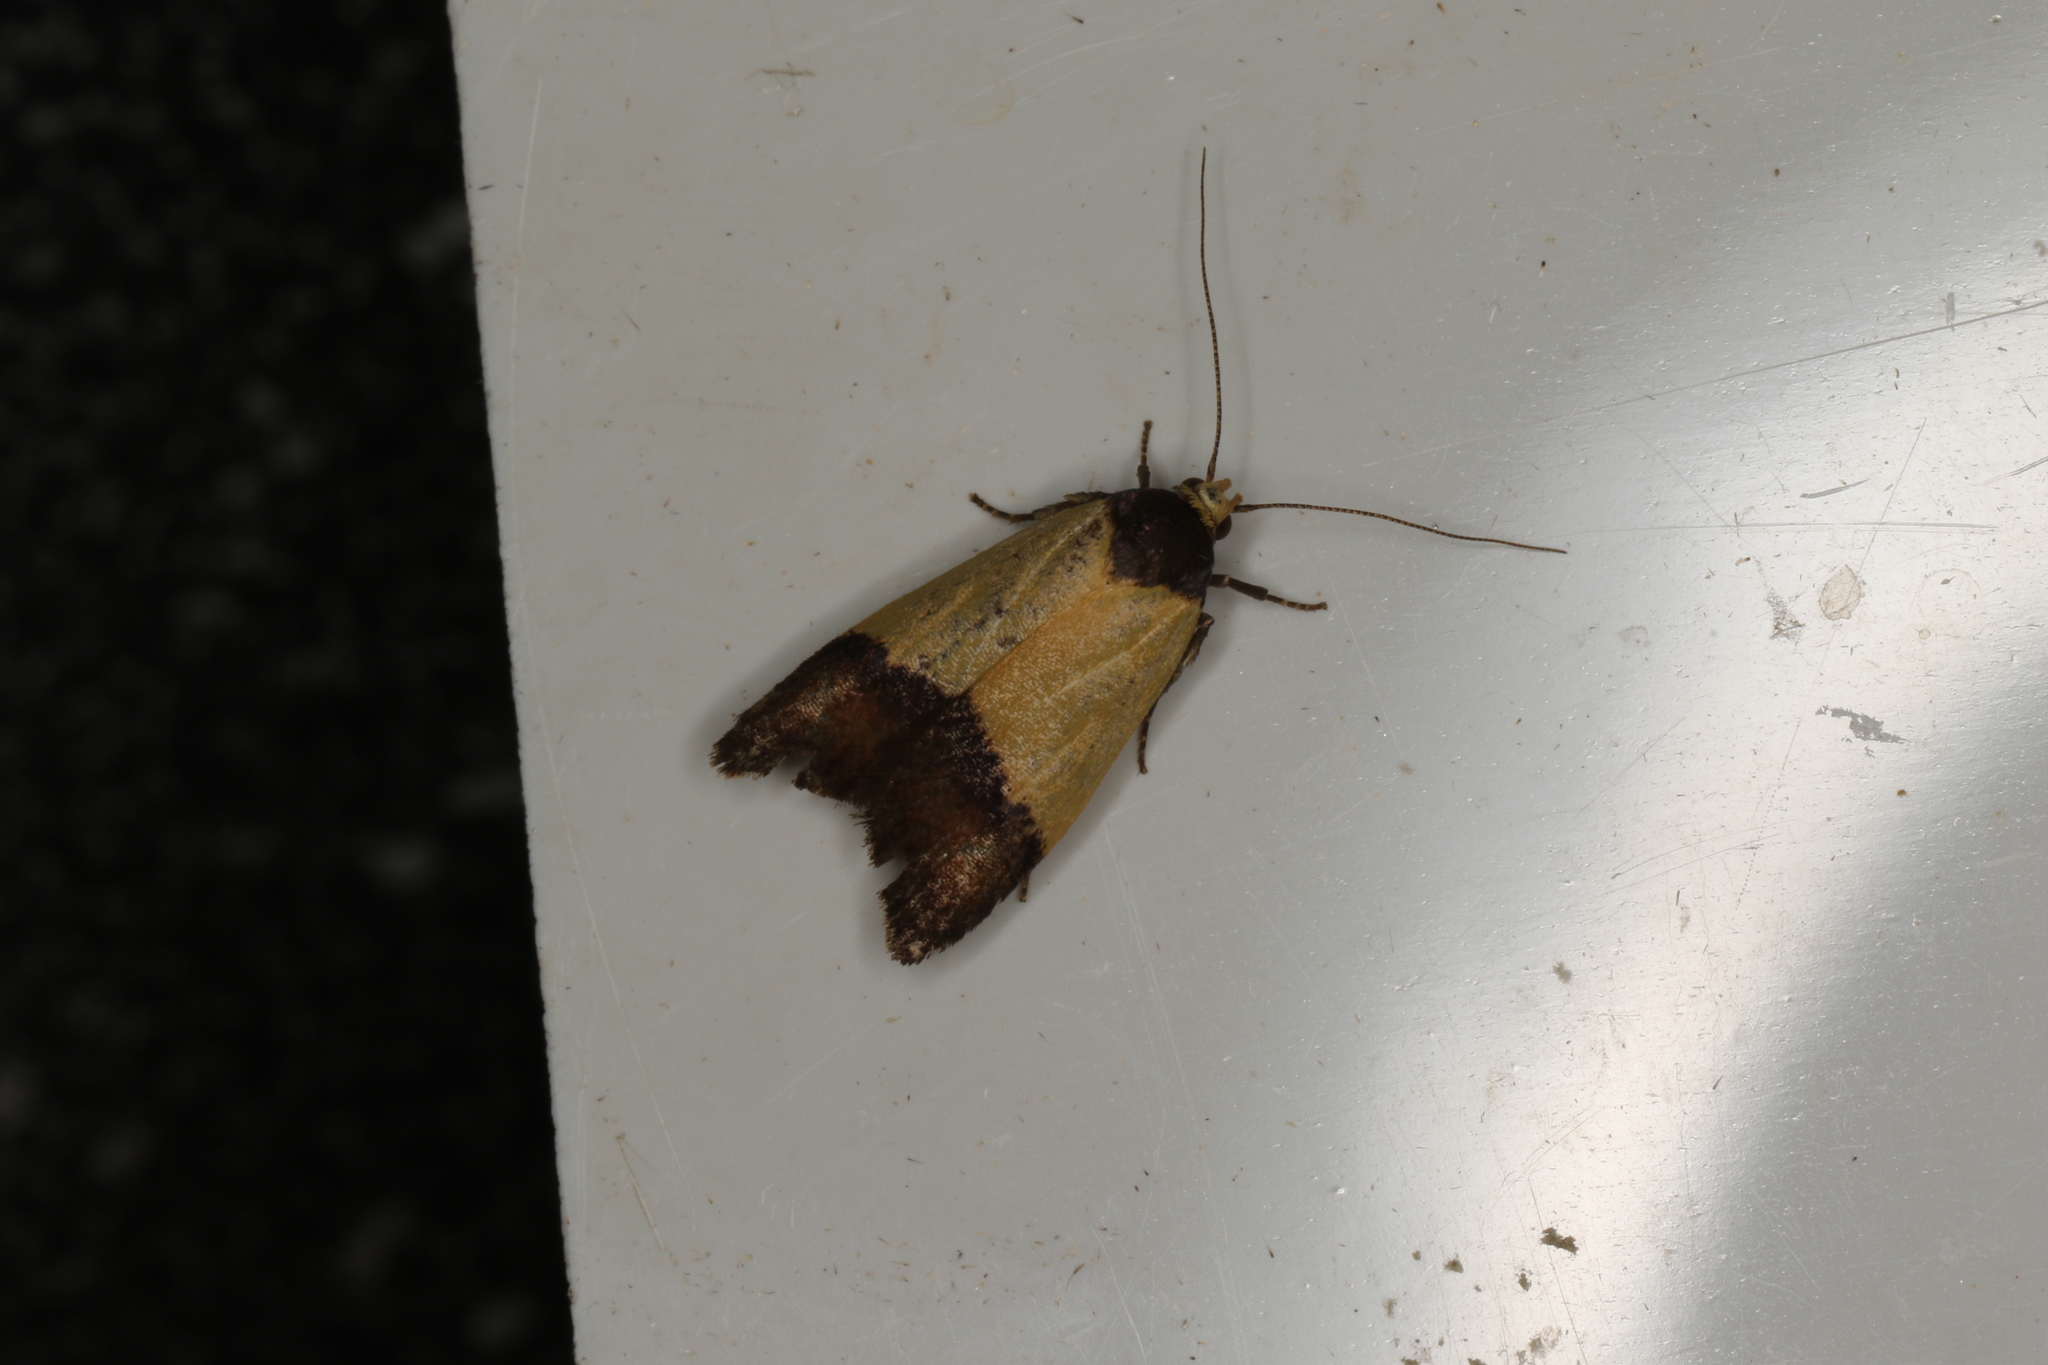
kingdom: Animalia
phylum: Arthropoda
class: Insecta
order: Lepidoptera
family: Oecophoridae
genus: Heteroteucha
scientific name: Heteroteucha dichroella
